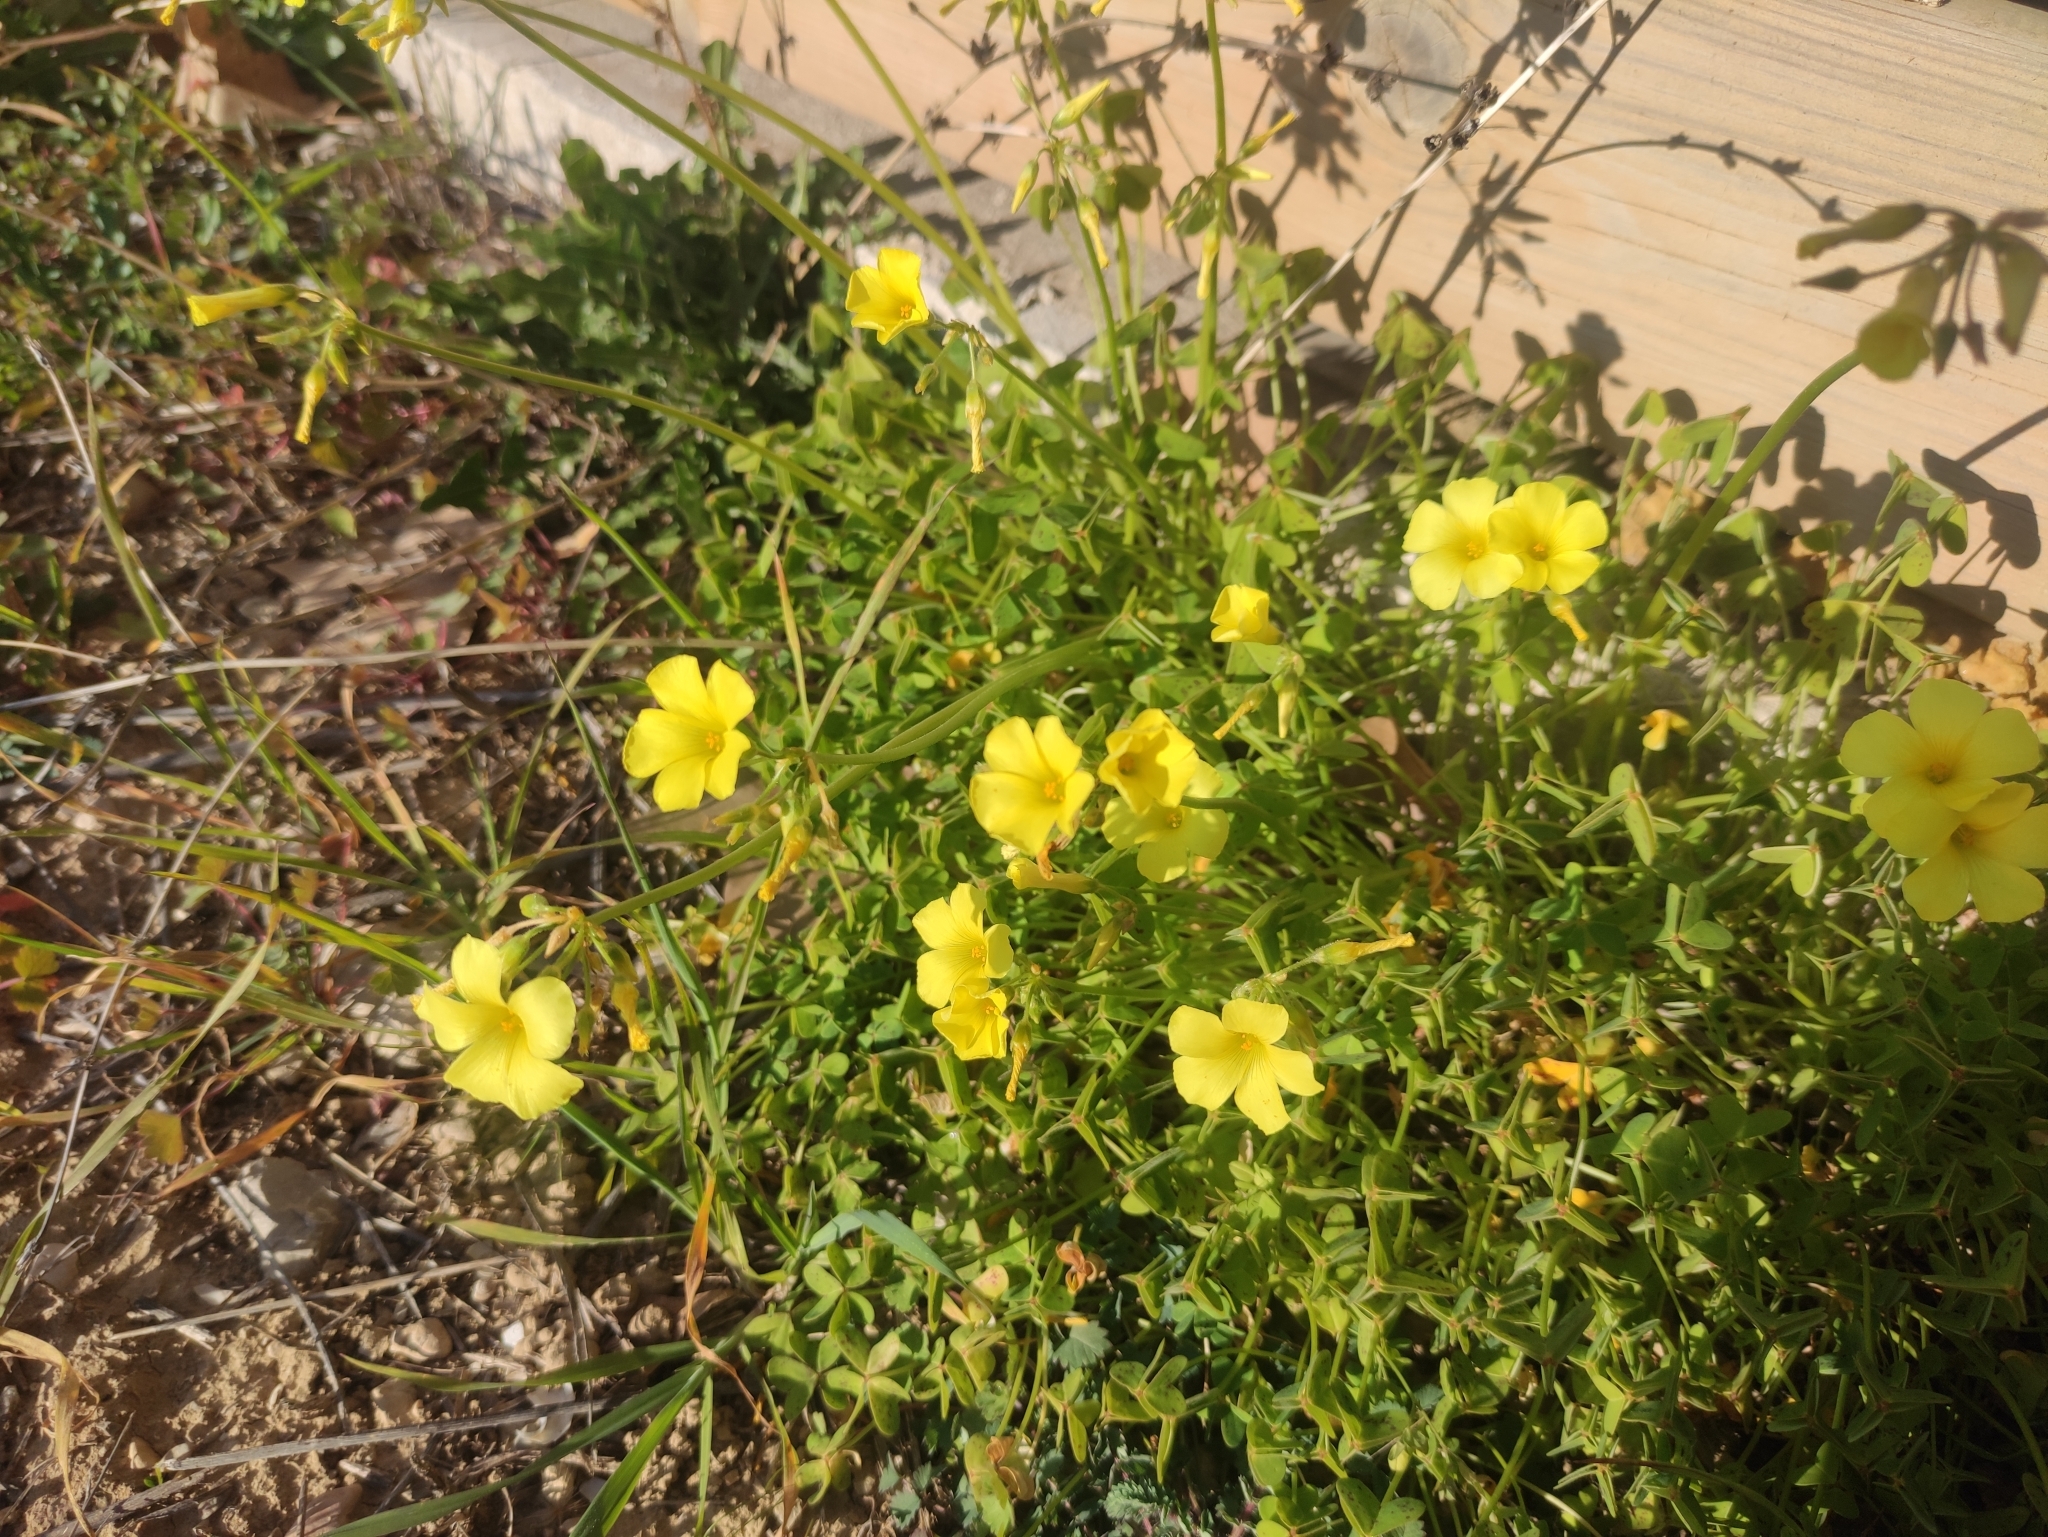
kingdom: Plantae
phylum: Tracheophyta
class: Magnoliopsida
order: Oxalidales
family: Oxalidaceae
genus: Oxalis
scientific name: Oxalis pes-caprae
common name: Bermuda-buttercup
